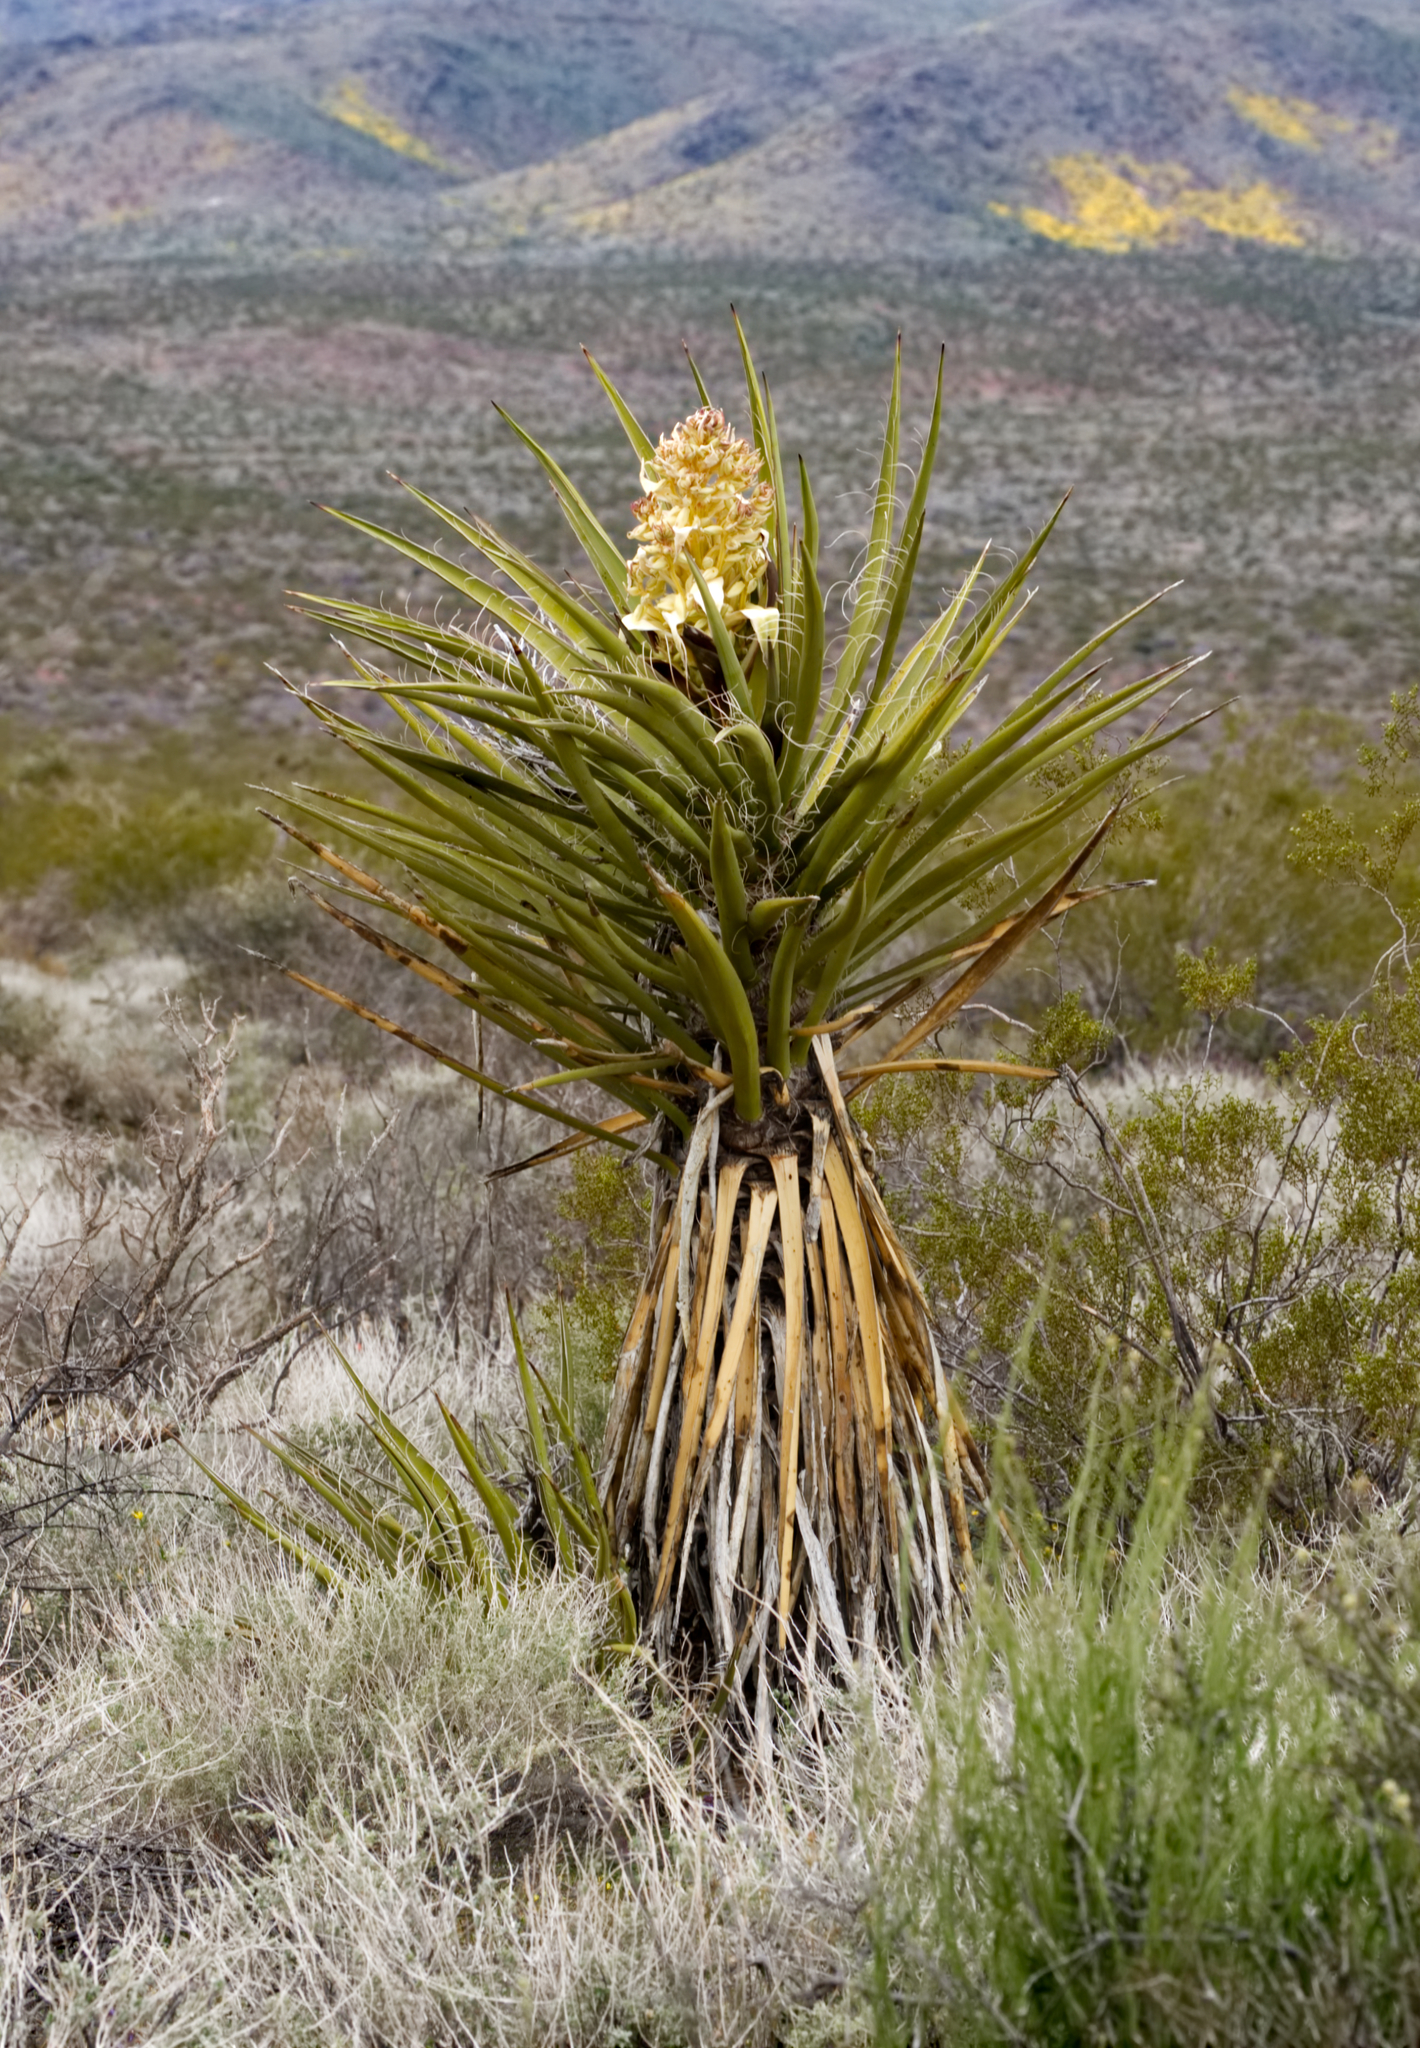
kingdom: Plantae
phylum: Tracheophyta
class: Liliopsida
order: Asparagales
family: Asparagaceae
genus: Yucca
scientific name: Yucca schidigera
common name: Mojave yucca
